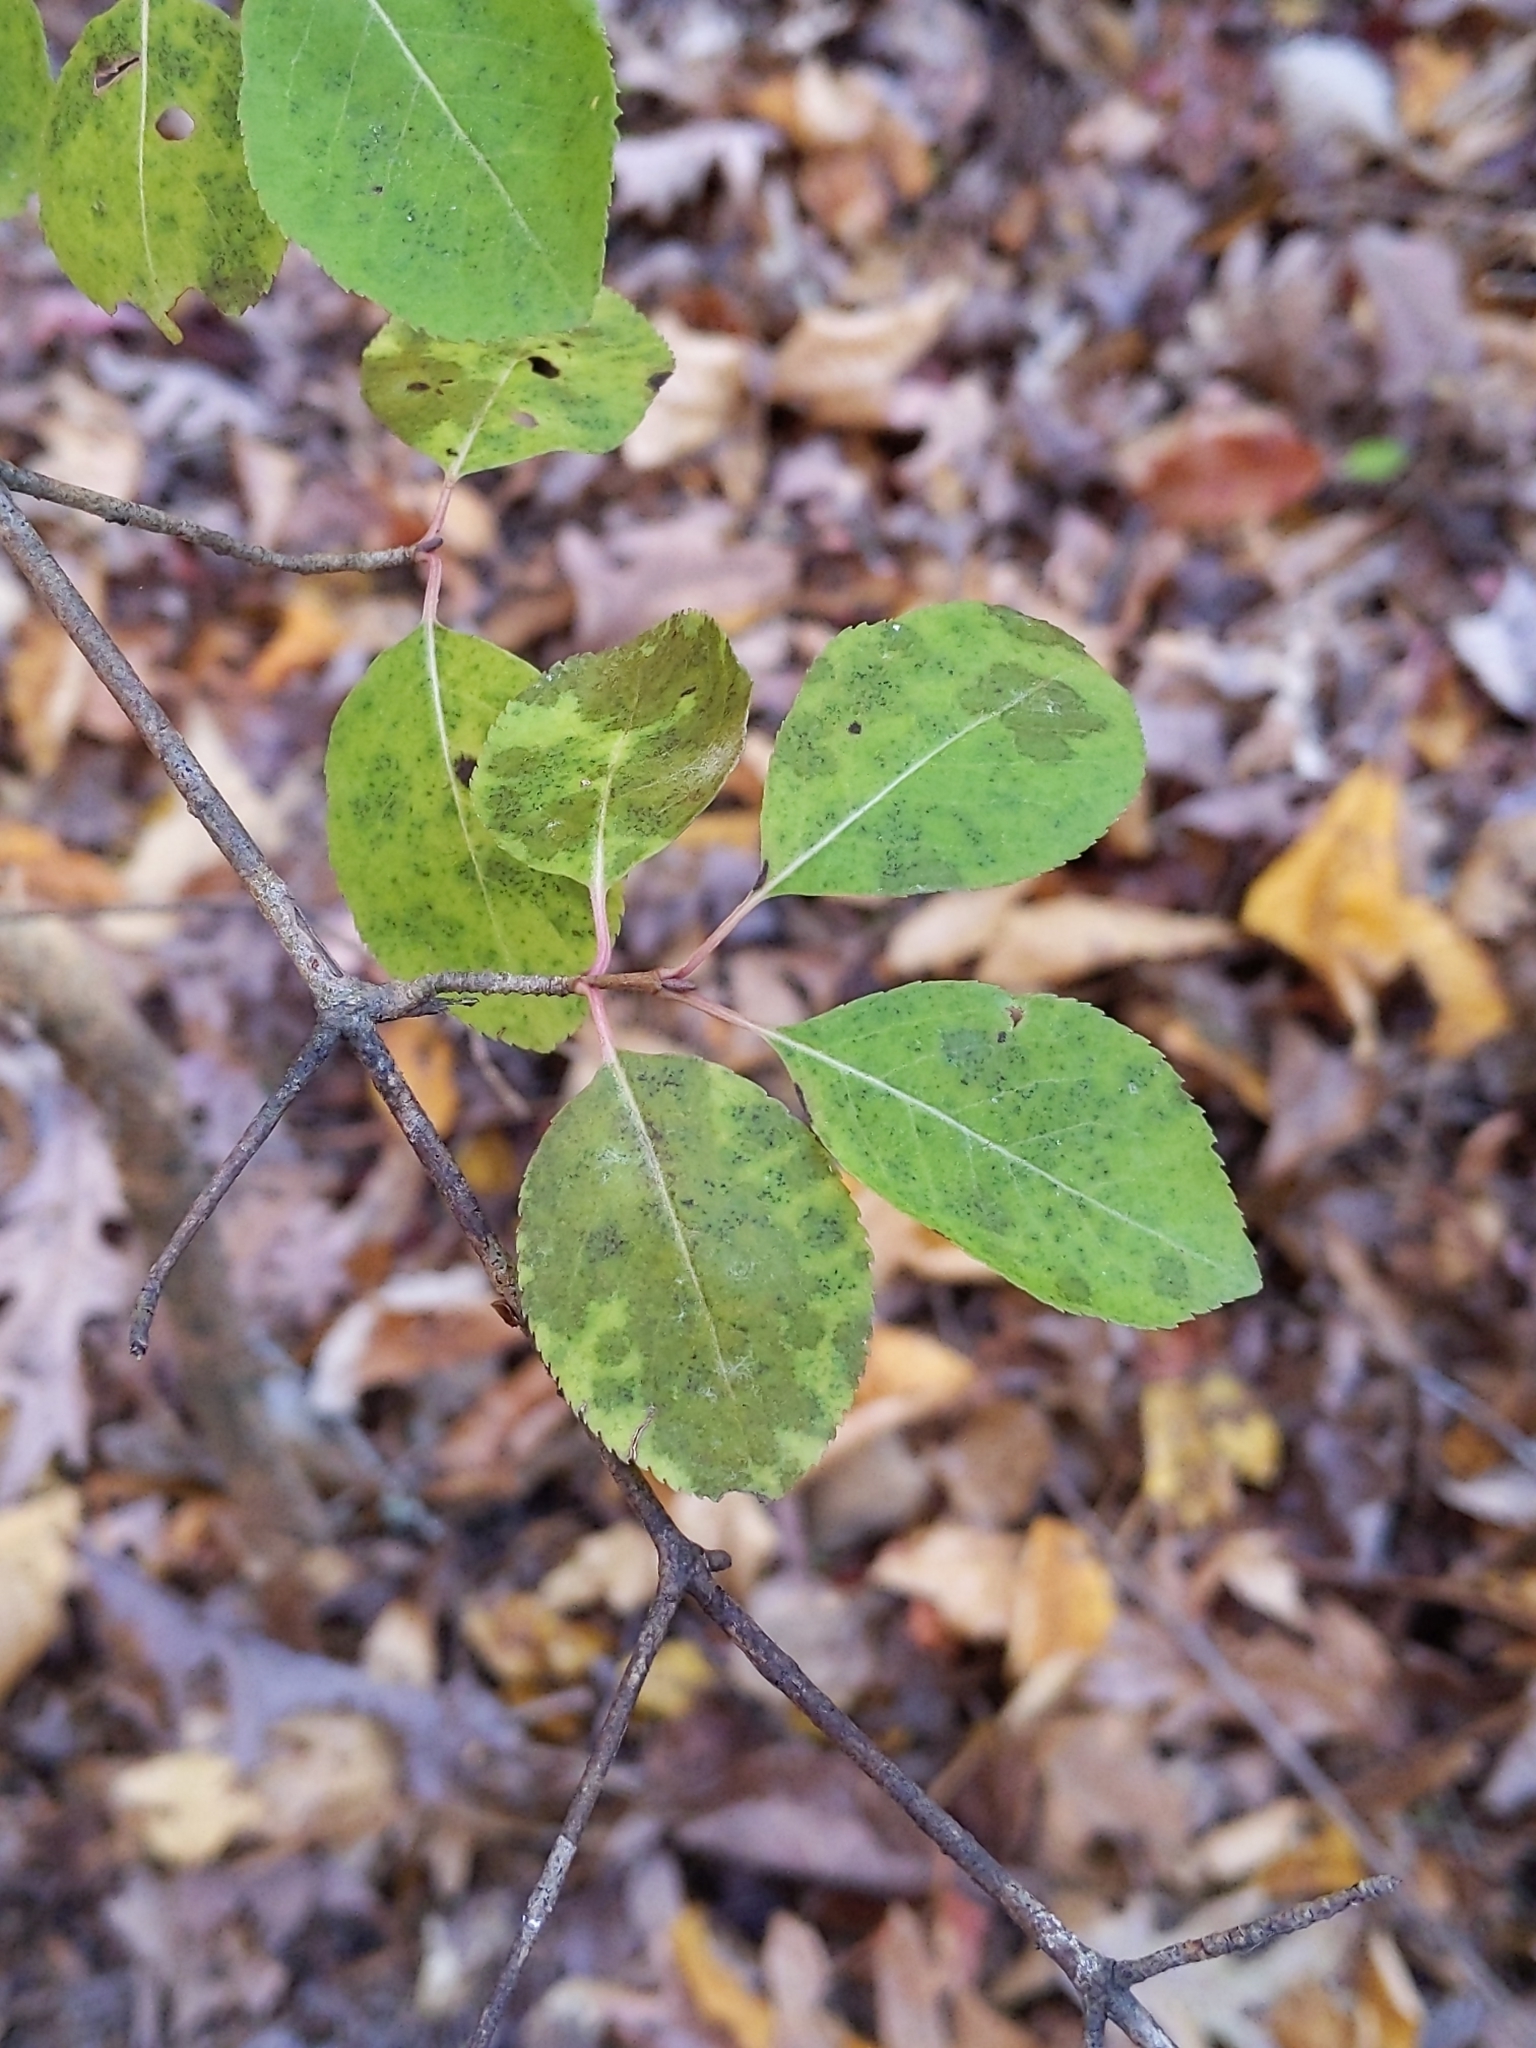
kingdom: Plantae
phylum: Tracheophyta
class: Magnoliopsida
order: Dipsacales
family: Viburnaceae
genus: Viburnum
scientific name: Viburnum prunifolium
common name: Black haw
